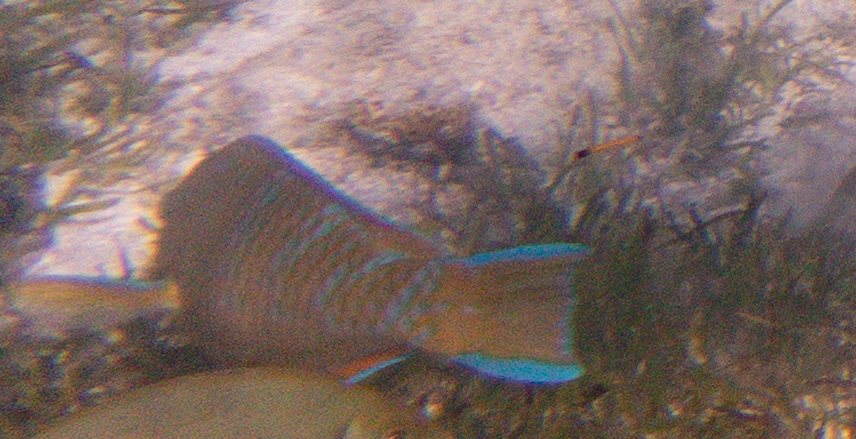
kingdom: Animalia
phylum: Chordata
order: Perciformes
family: Scaridae
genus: Scarus
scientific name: Scarus ghobban
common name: Blue-barred parrotfish
